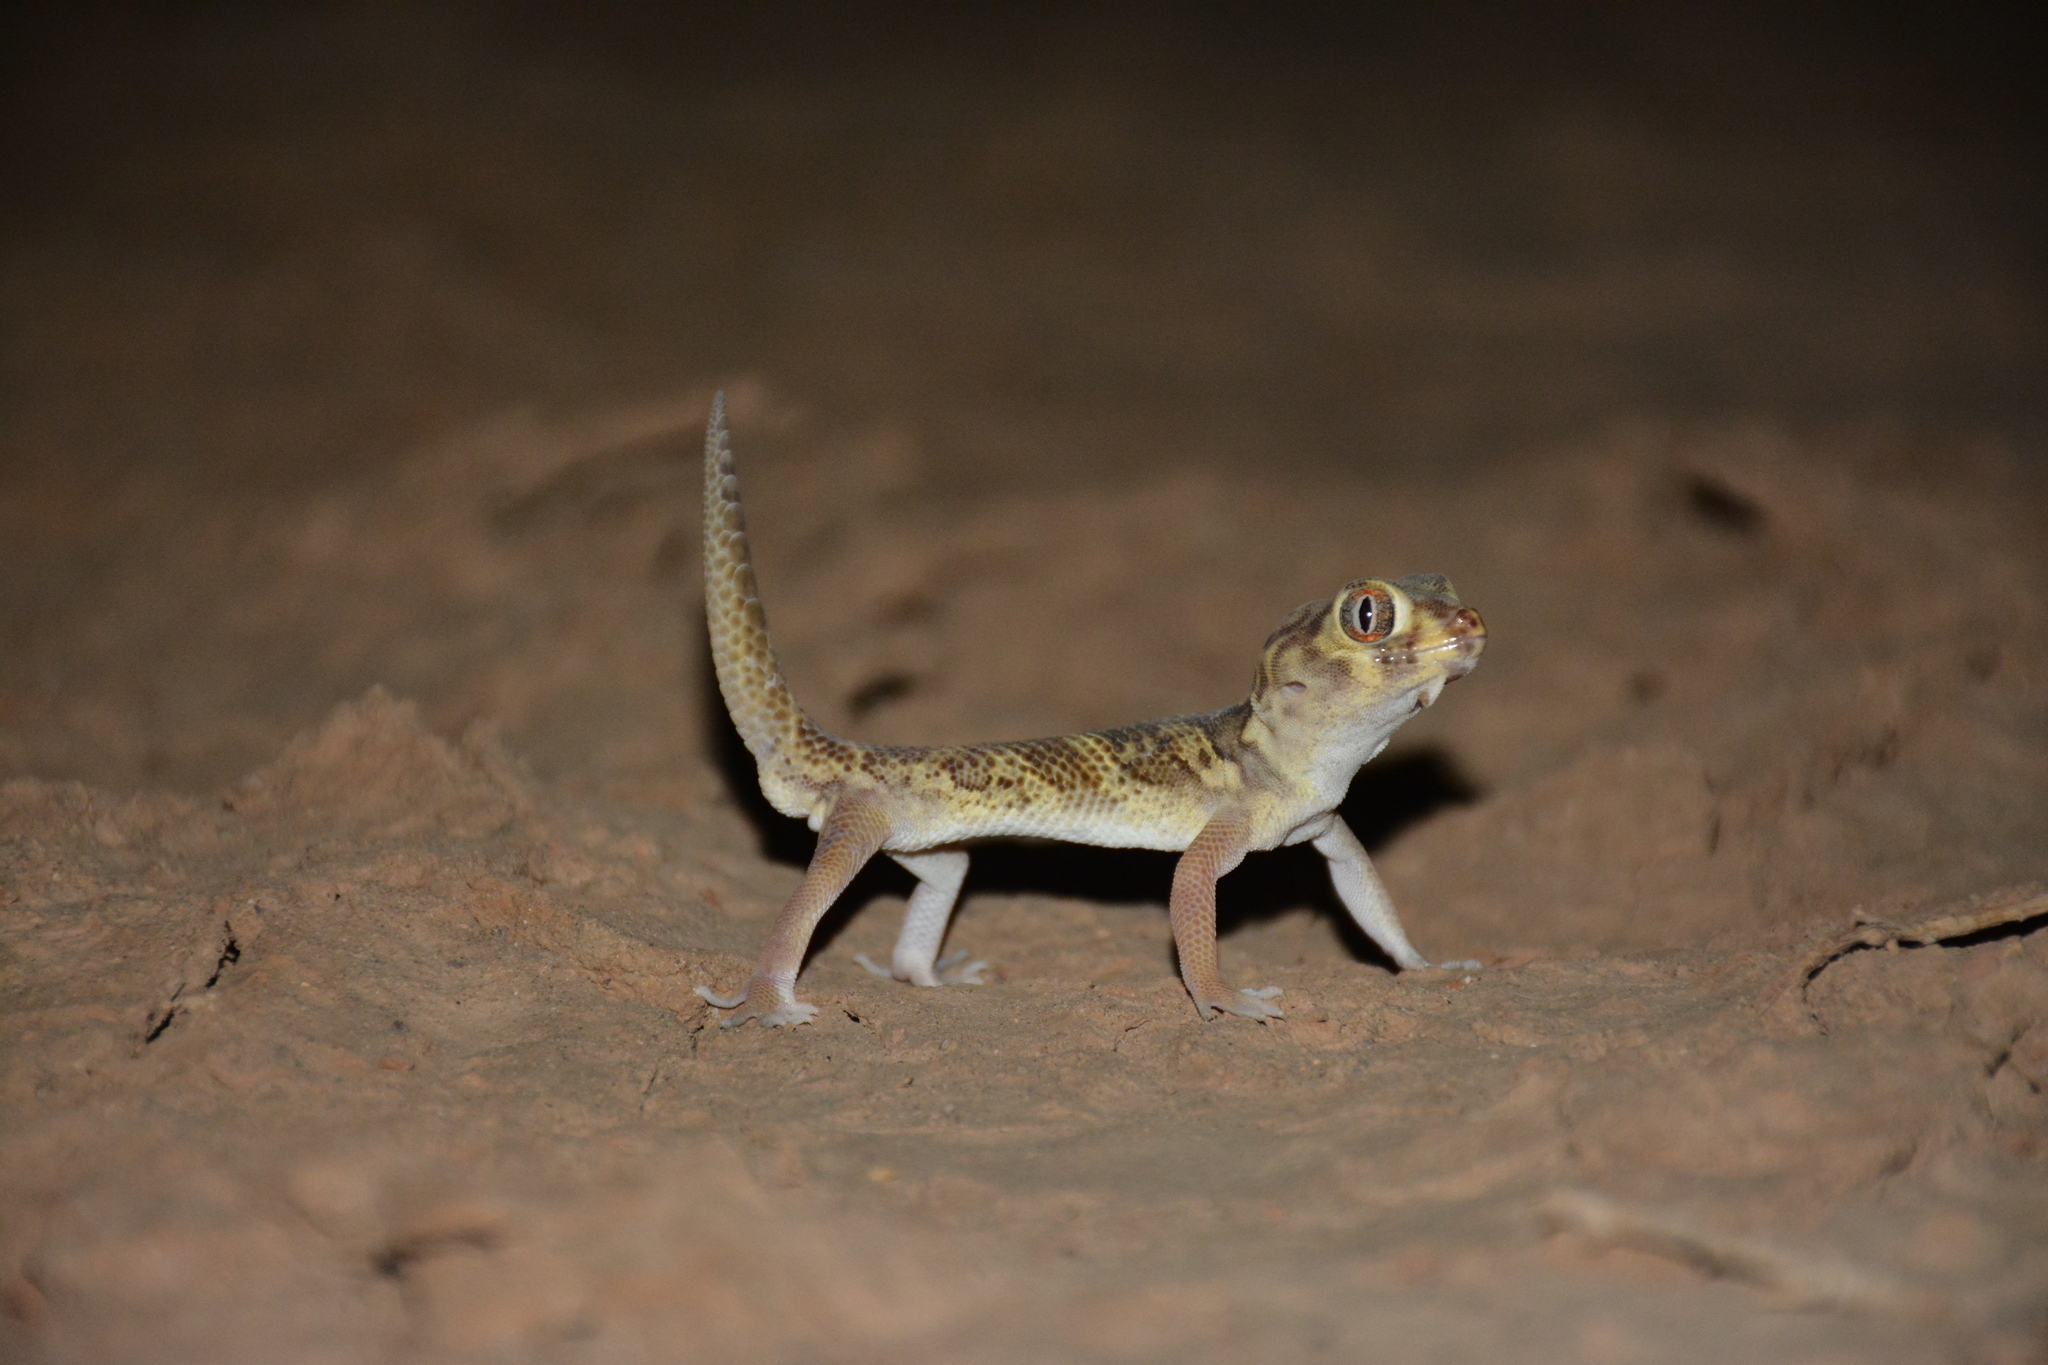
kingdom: Animalia
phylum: Chordata
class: Squamata
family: Sphaerodactylidae
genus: Teratoscincus
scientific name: Teratoscincus bedriagai
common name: Bedriaga's plate-tailed gecko
